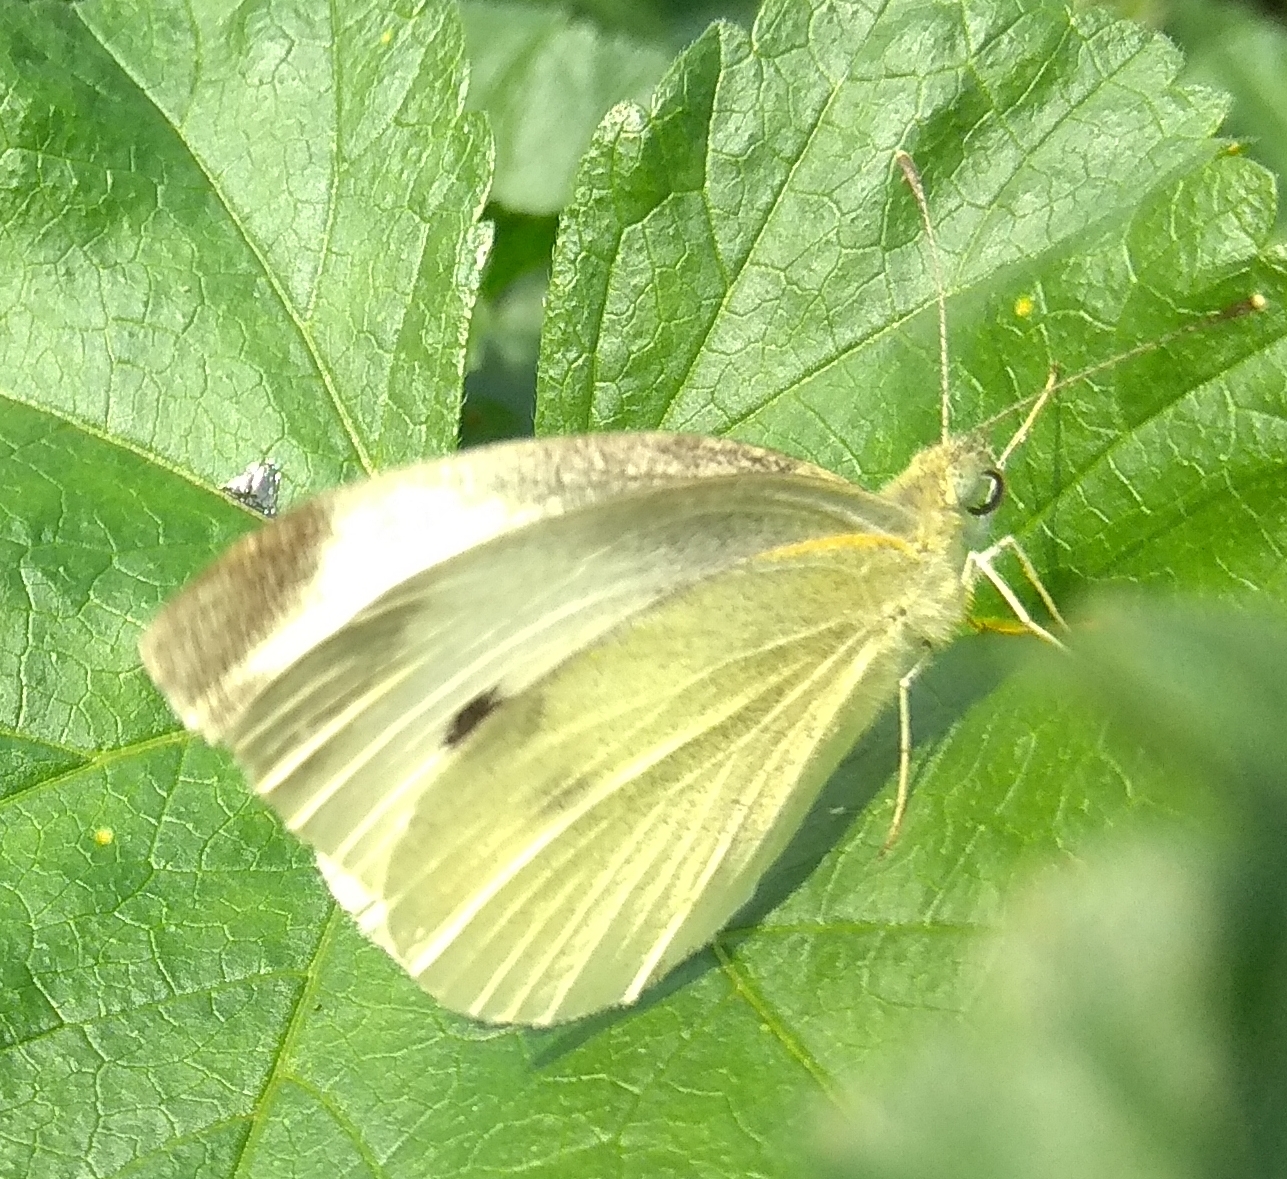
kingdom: Animalia
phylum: Arthropoda
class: Insecta
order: Lepidoptera
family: Pieridae
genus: Pieris
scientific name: Pieris rapae
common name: Small white
